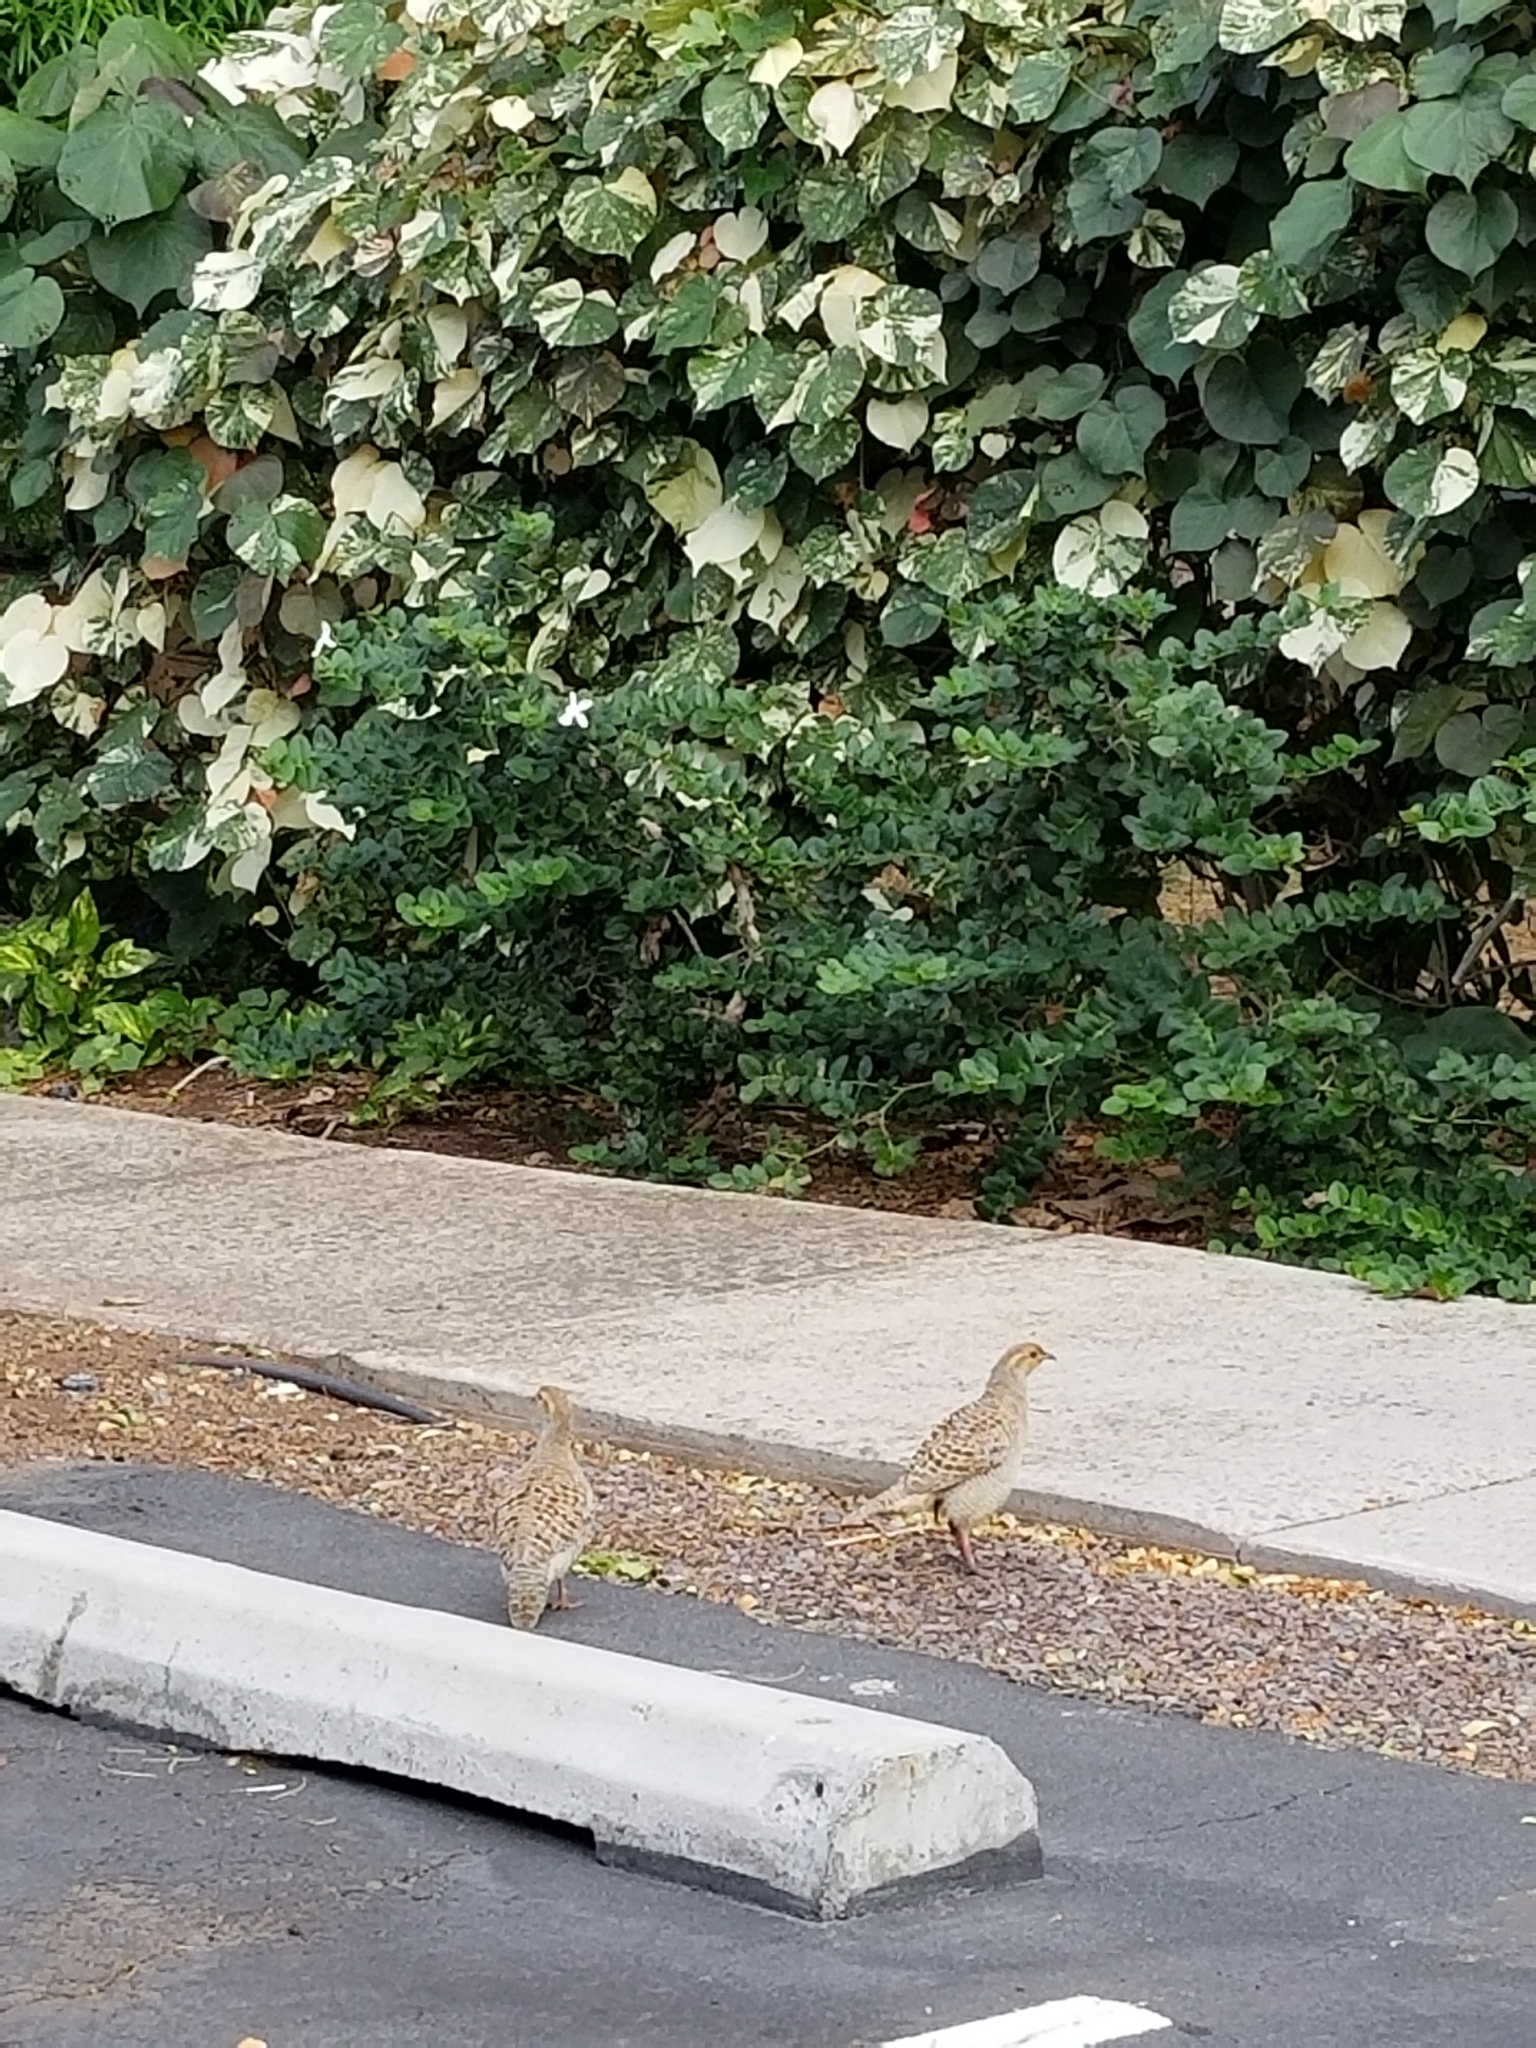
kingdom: Animalia
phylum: Chordata
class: Aves
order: Galliformes
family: Phasianidae
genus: Ortygornis
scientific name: Ortygornis pondicerianus
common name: Grey francolin
